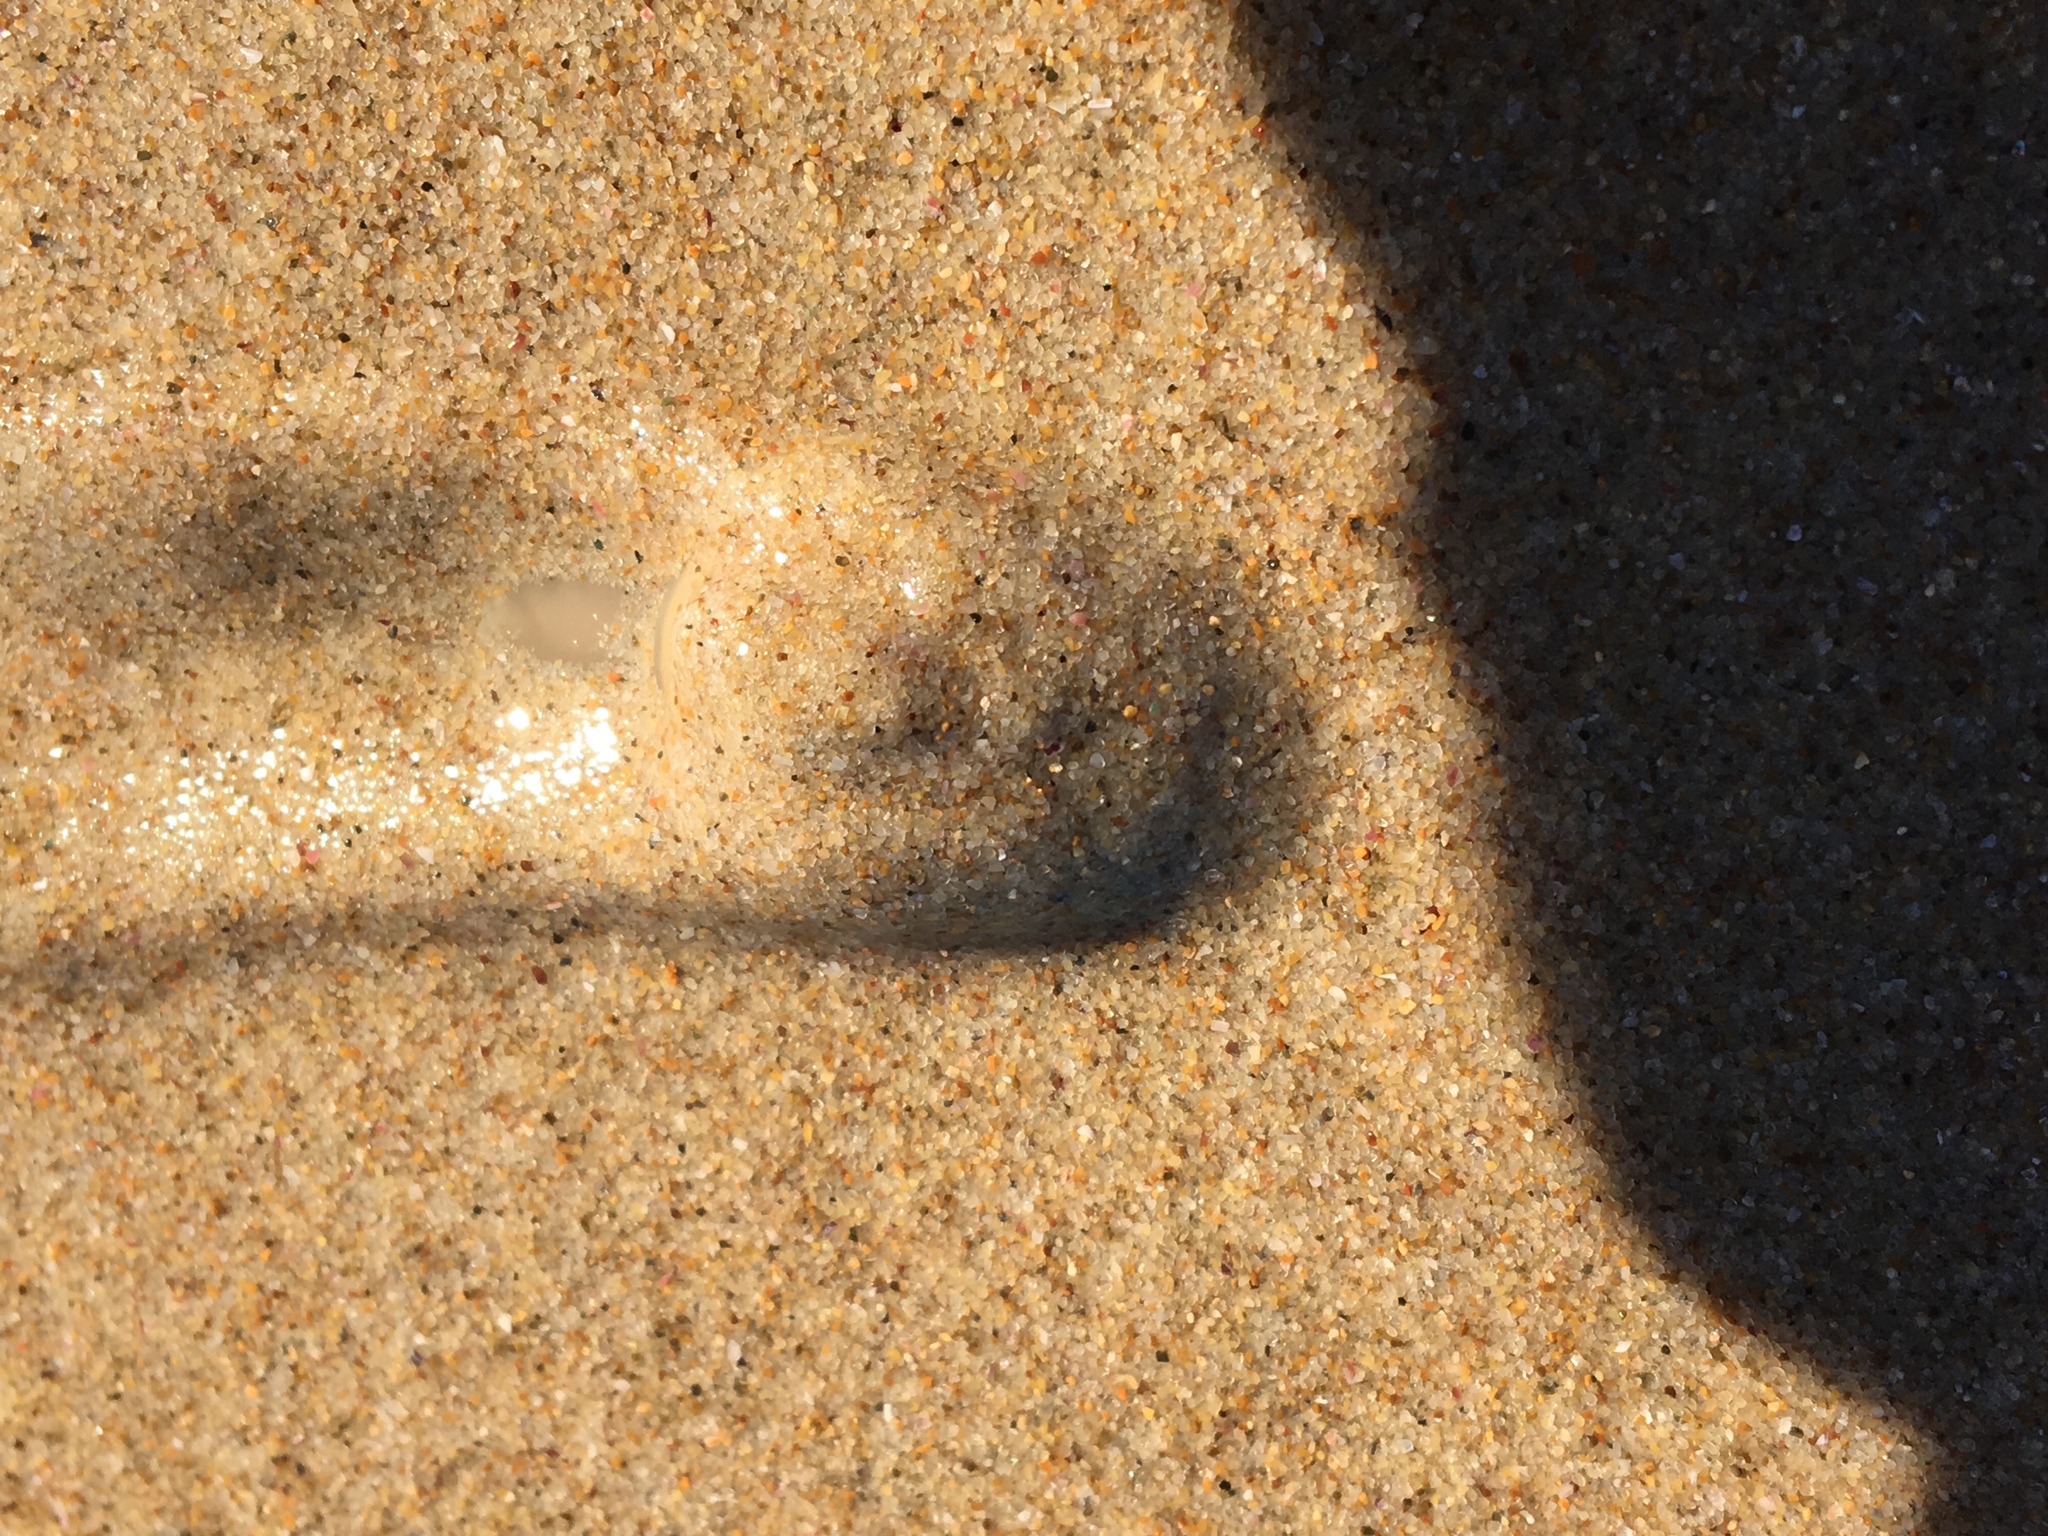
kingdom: Animalia
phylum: Mollusca
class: Gastropoda
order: Littorinimorpha
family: Naticidae
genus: Conuber
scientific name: Conuber incei
